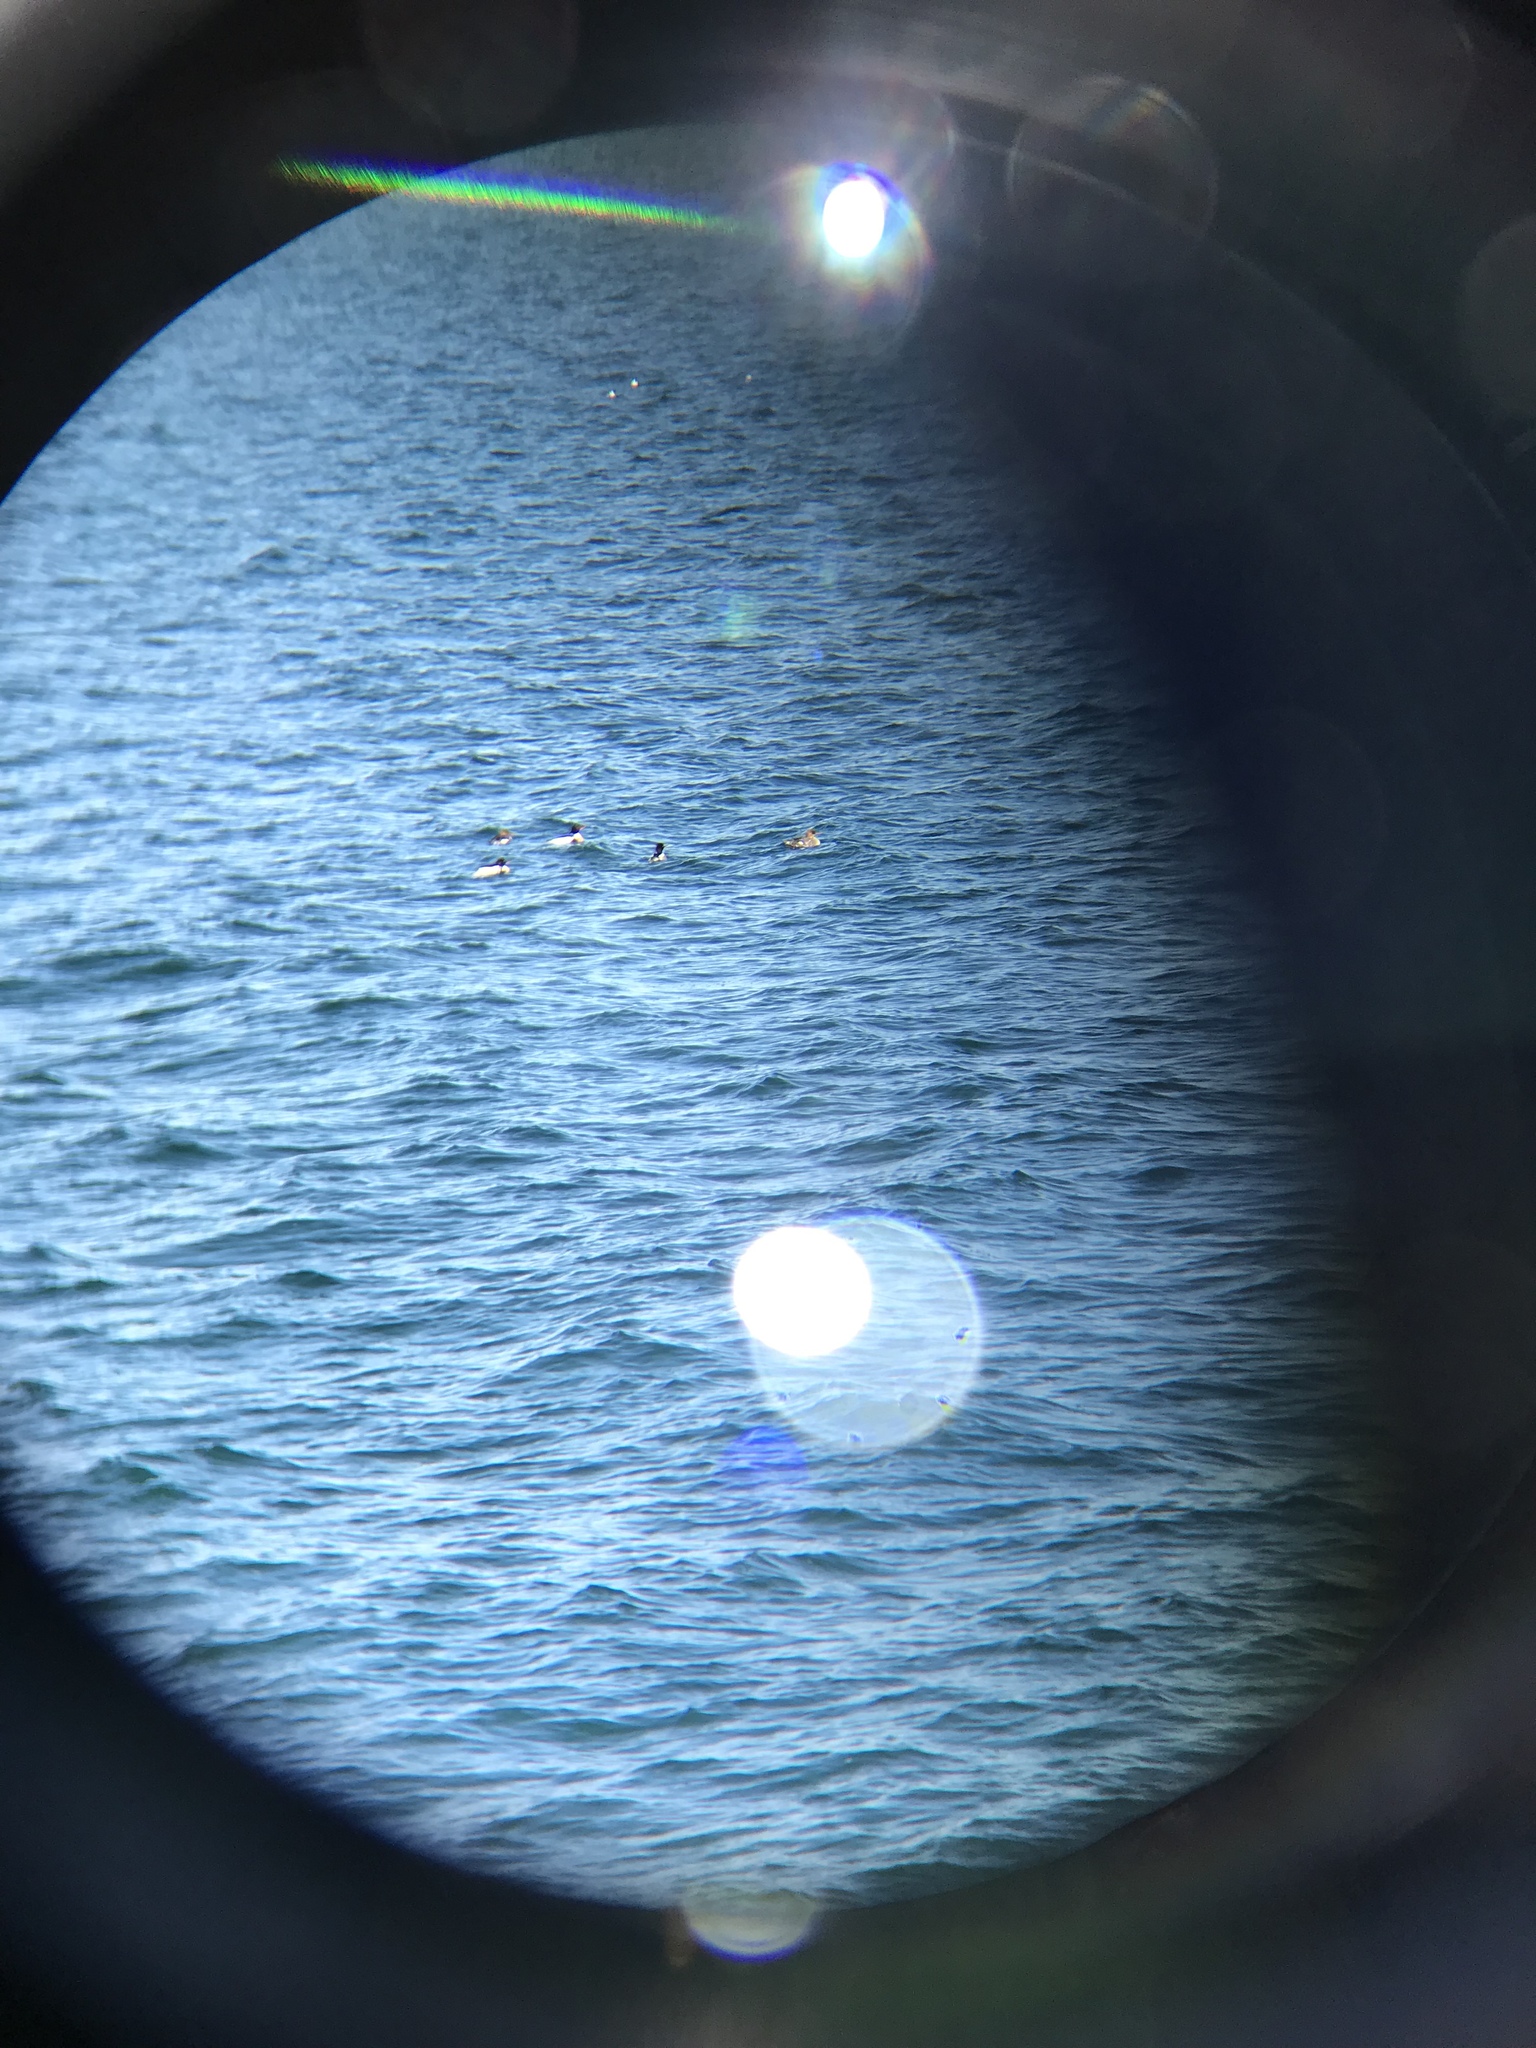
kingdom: Animalia
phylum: Chordata
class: Aves
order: Anseriformes
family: Anatidae
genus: Mergus
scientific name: Mergus serrator
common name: Red-breasted merganser
